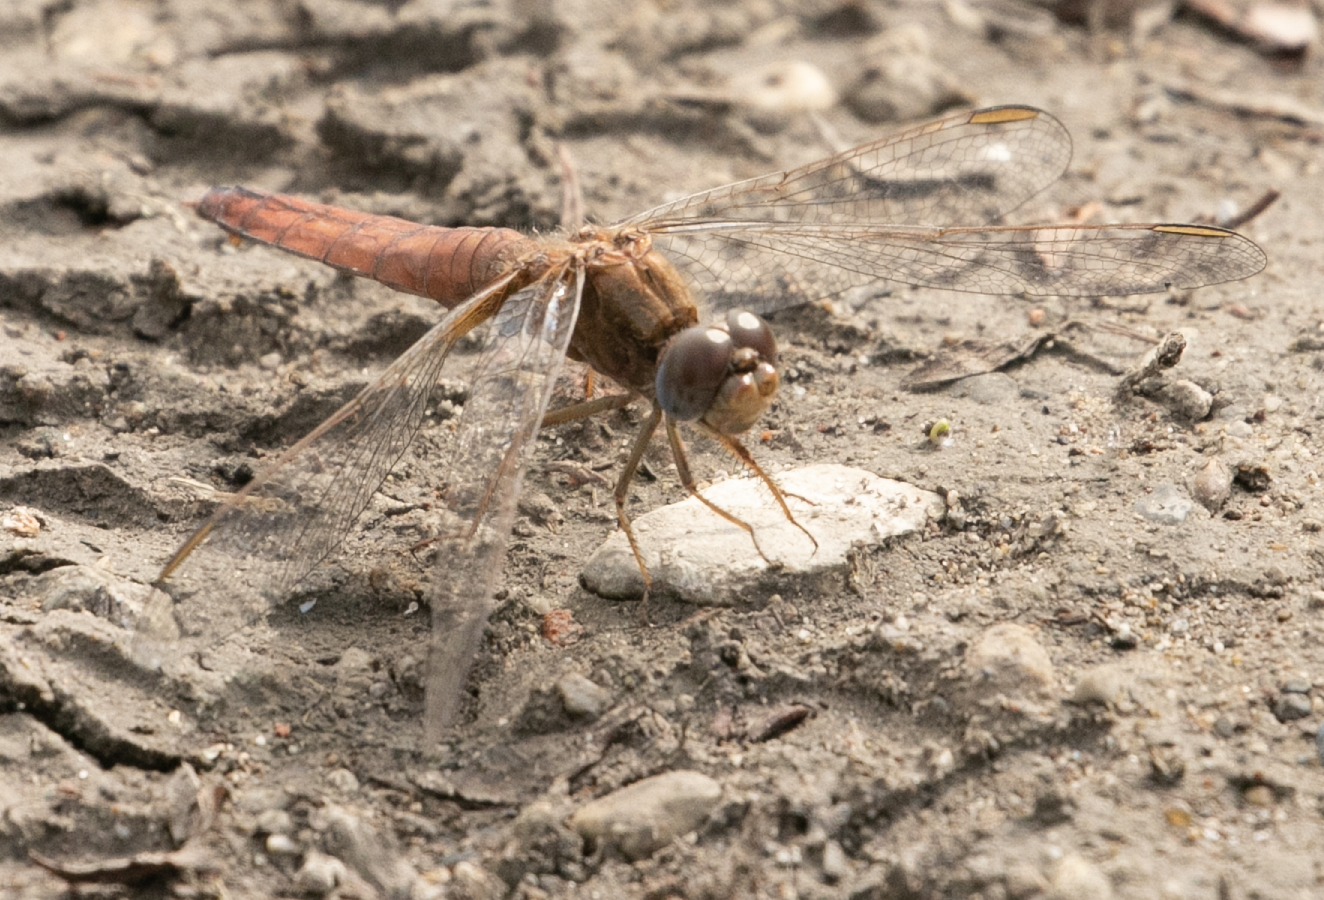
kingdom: Animalia
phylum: Arthropoda
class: Insecta
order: Odonata
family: Libellulidae
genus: Crocothemis
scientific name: Crocothemis erythraea
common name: Scarlet dragonfly
